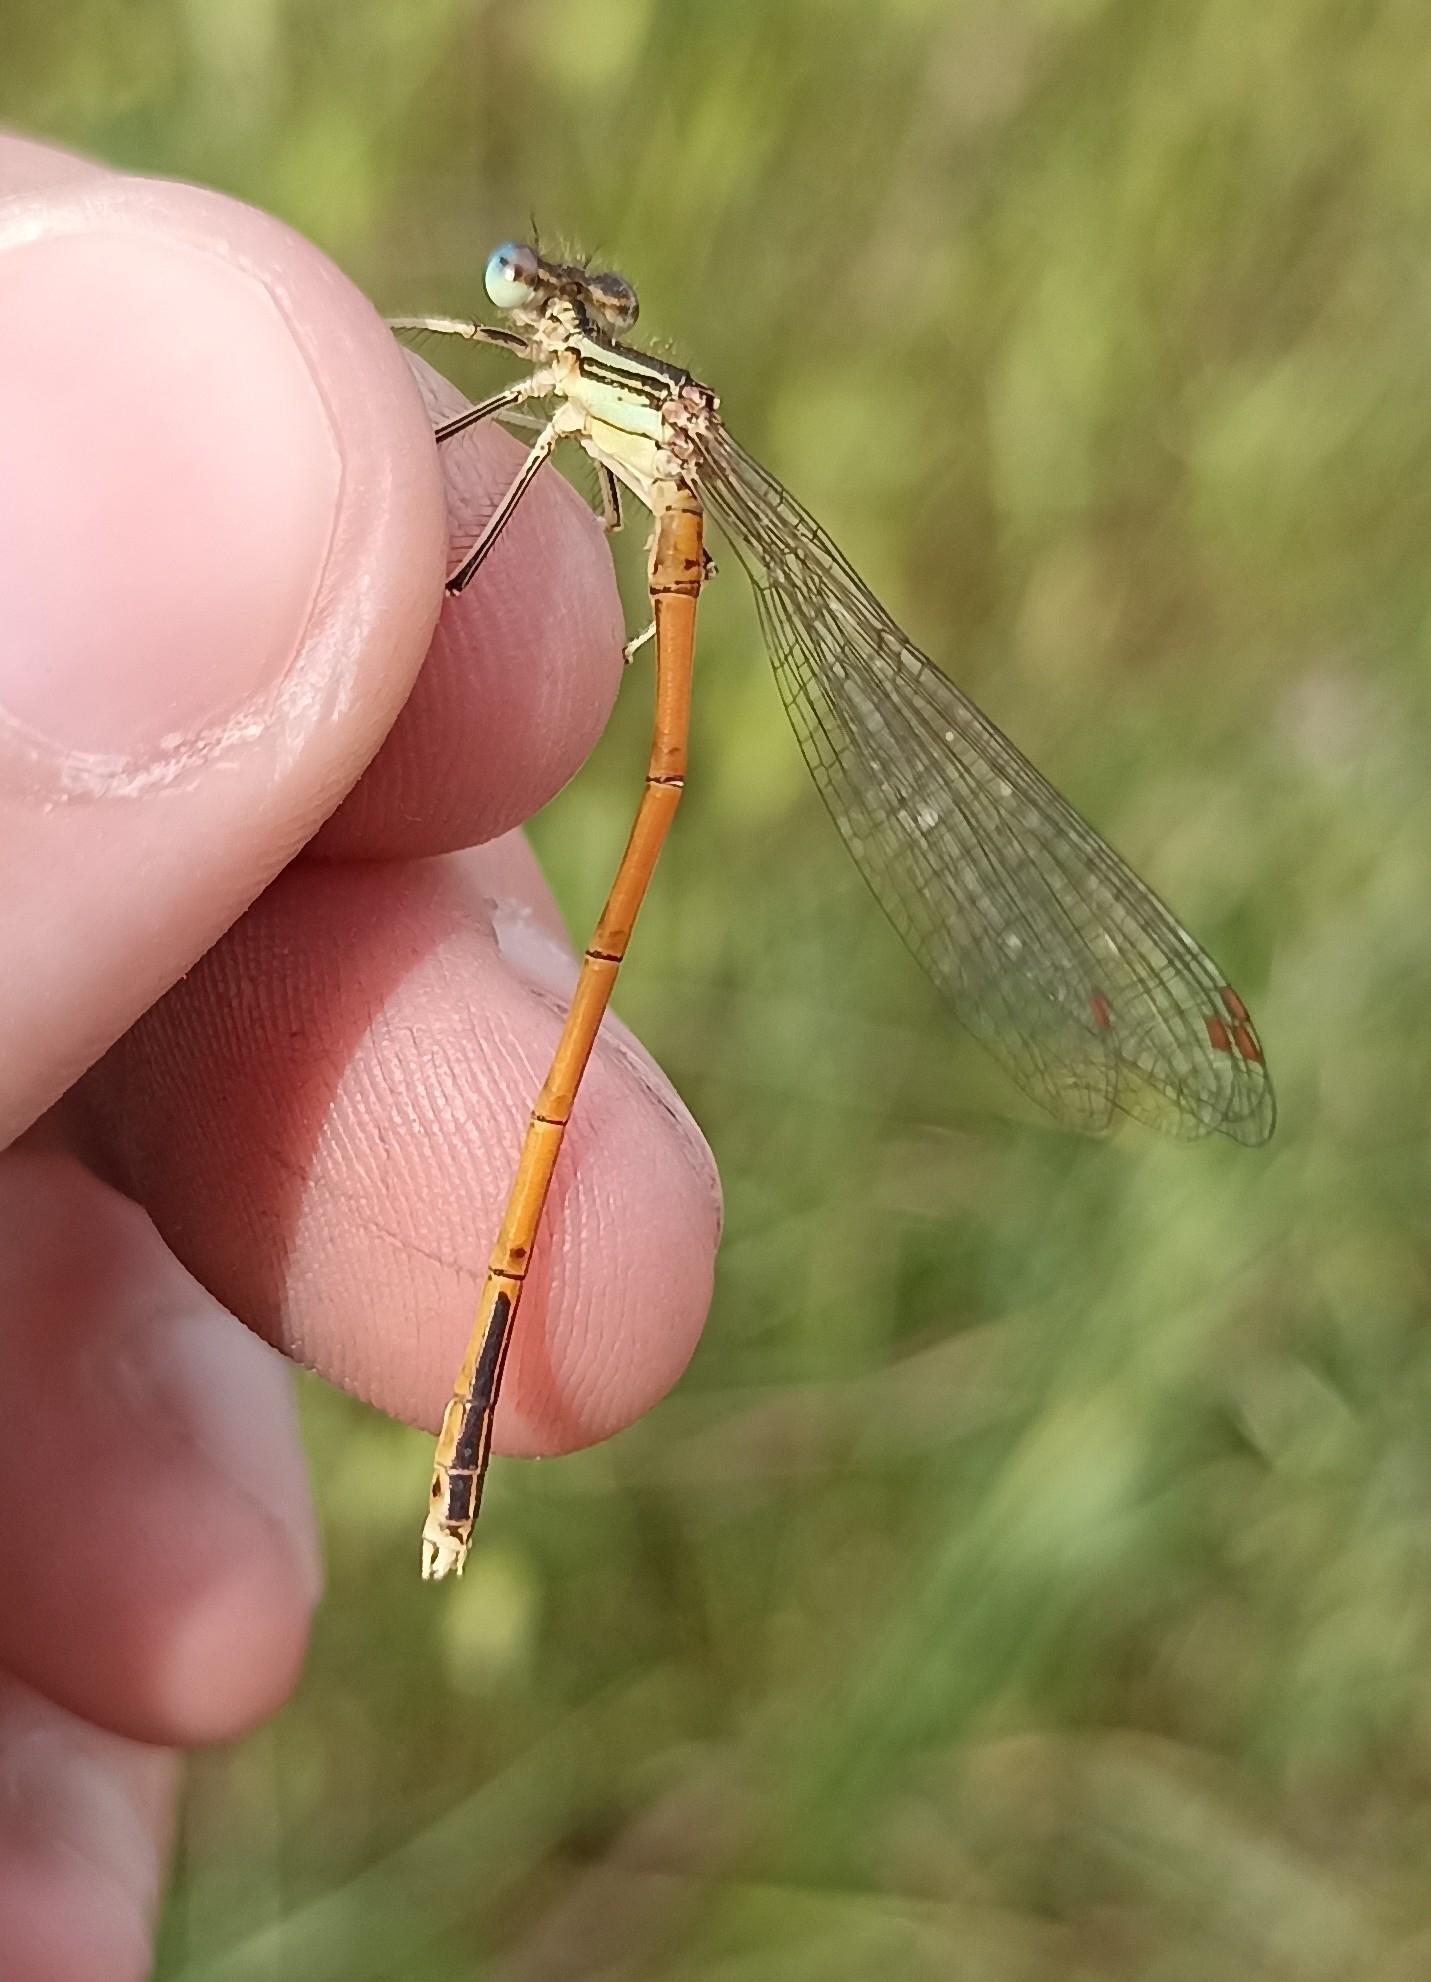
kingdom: Animalia
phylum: Arthropoda
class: Insecta
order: Odonata
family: Platycnemididae
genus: Platycnemis
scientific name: Platycnemis acutipennis
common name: Orange featherleg
